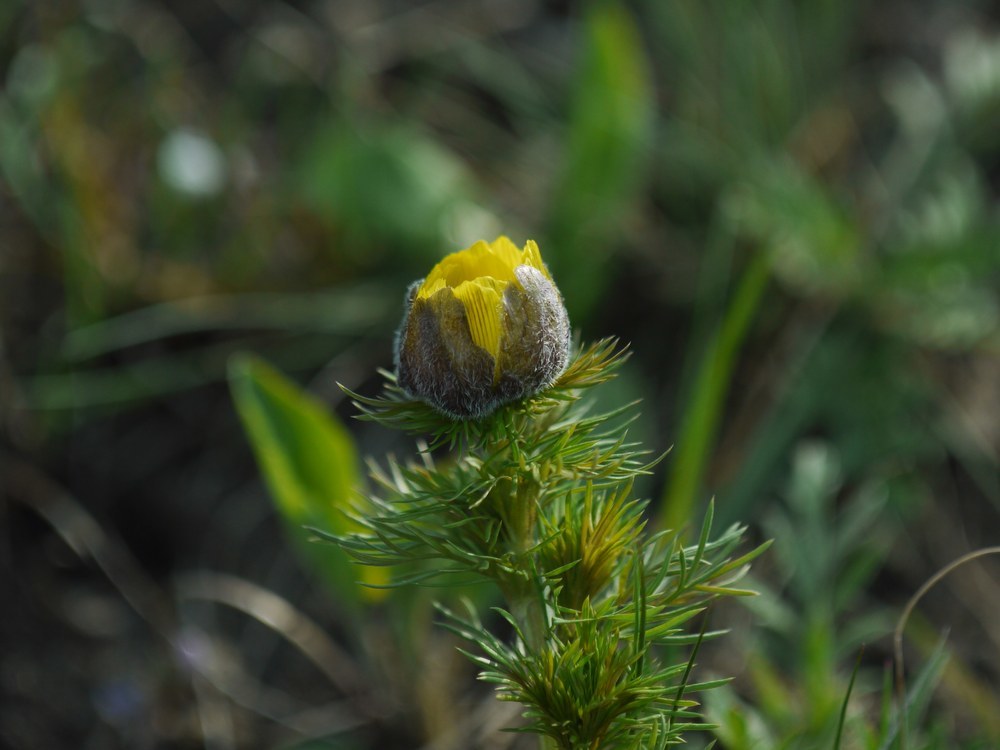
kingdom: Plantae
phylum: Tracheophyta
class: Magnoliopsida
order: Ranunculales
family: Ranunculaceae
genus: Adonis
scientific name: Adonis vernalis
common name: Yellow pheasants-eye
